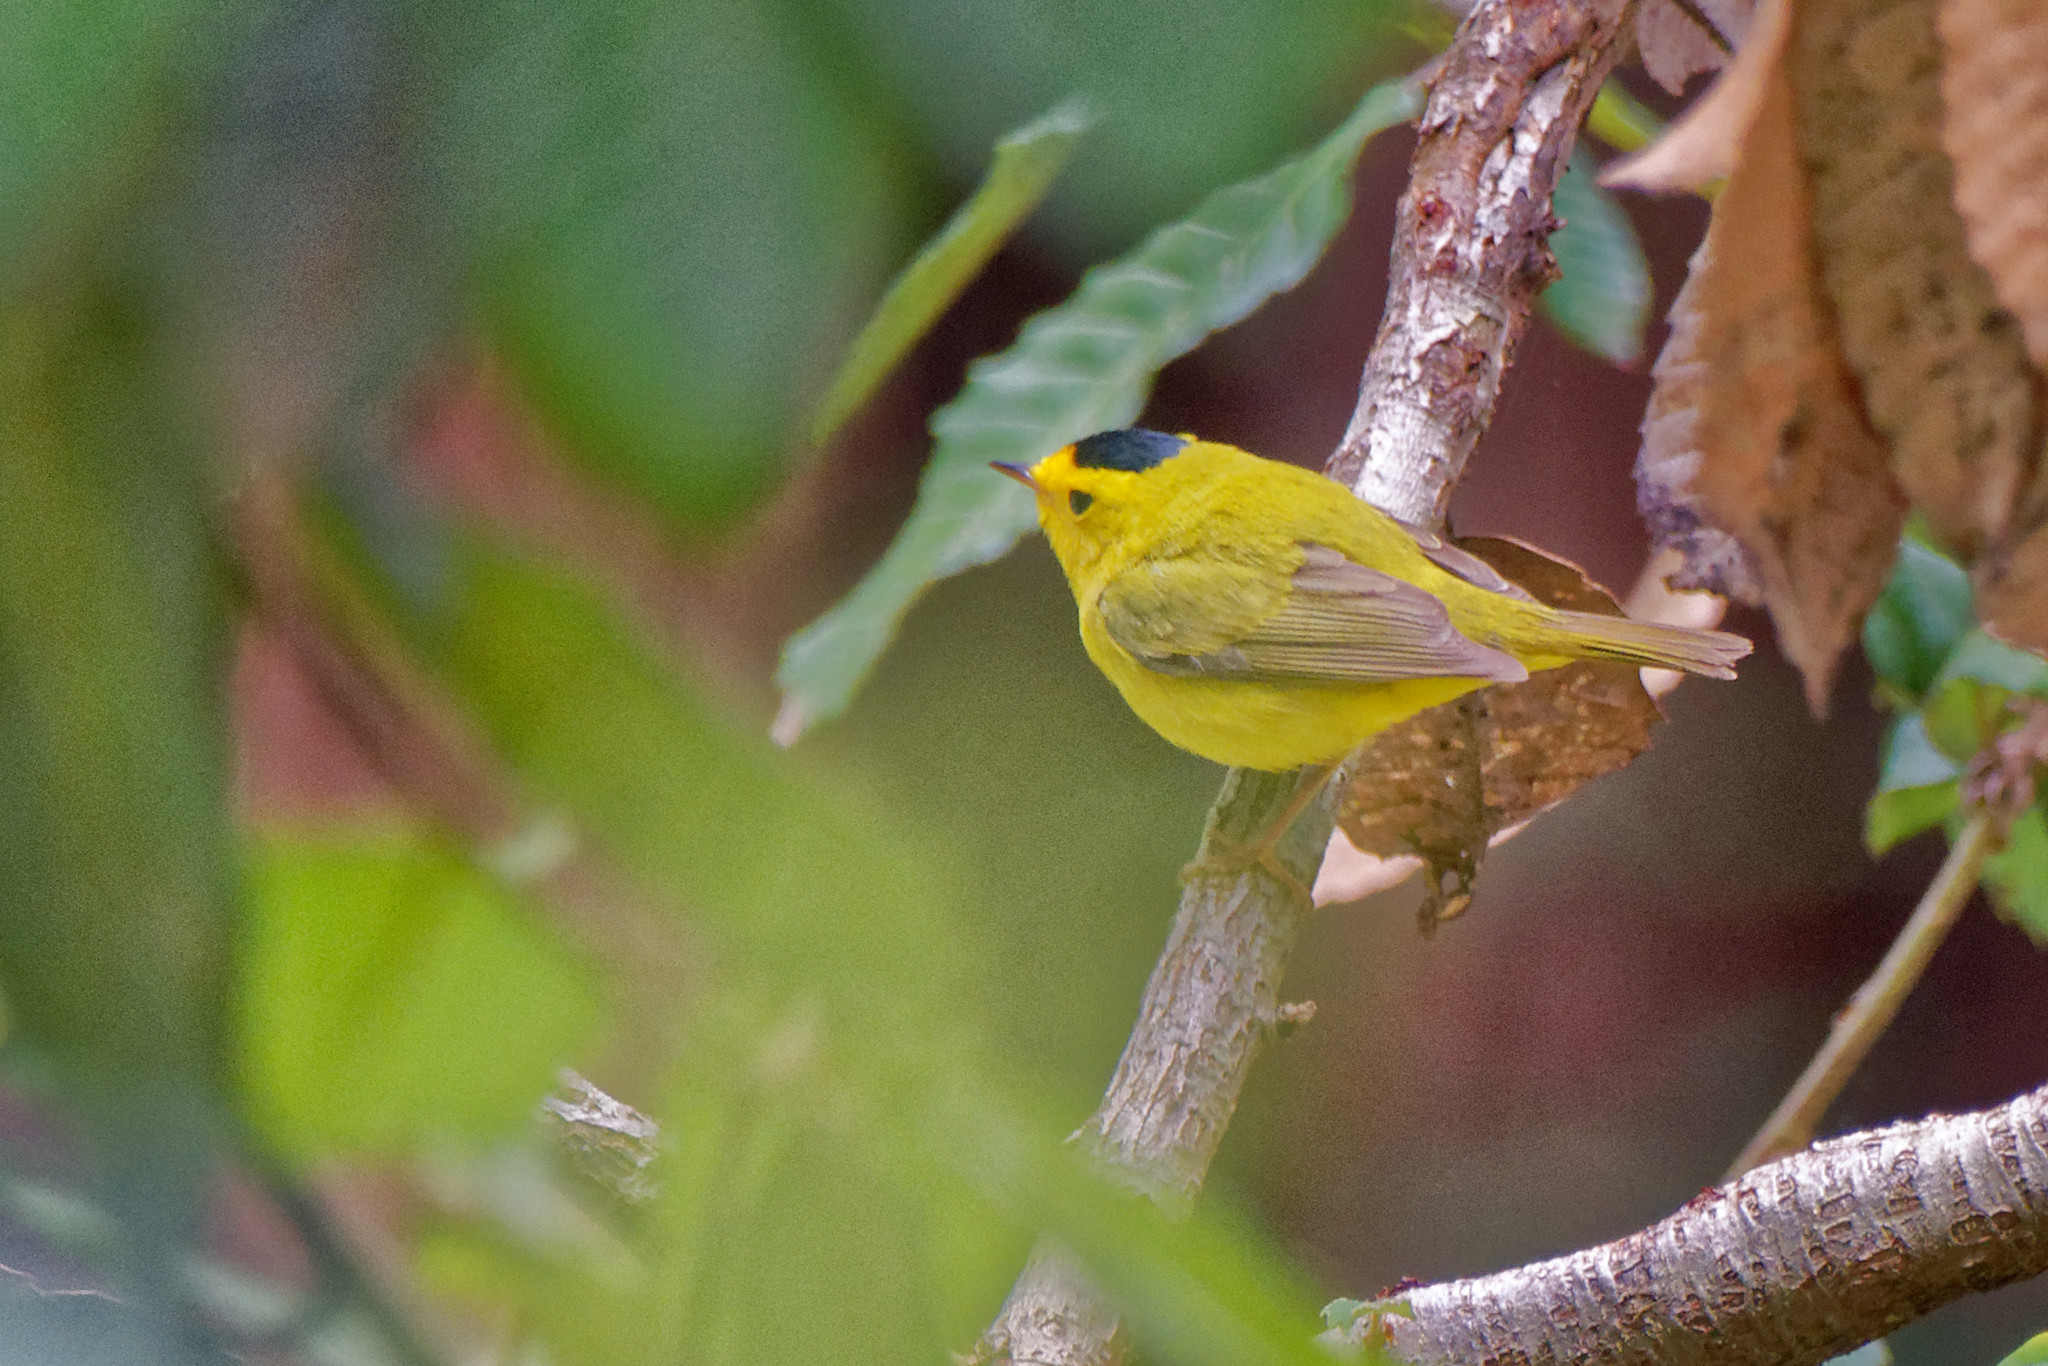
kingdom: Animalia
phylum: Chordata
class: Aves
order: Passeriformes
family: Parulidae
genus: Cardellina
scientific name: Cardellina pusilla
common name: Wilson's warbler
